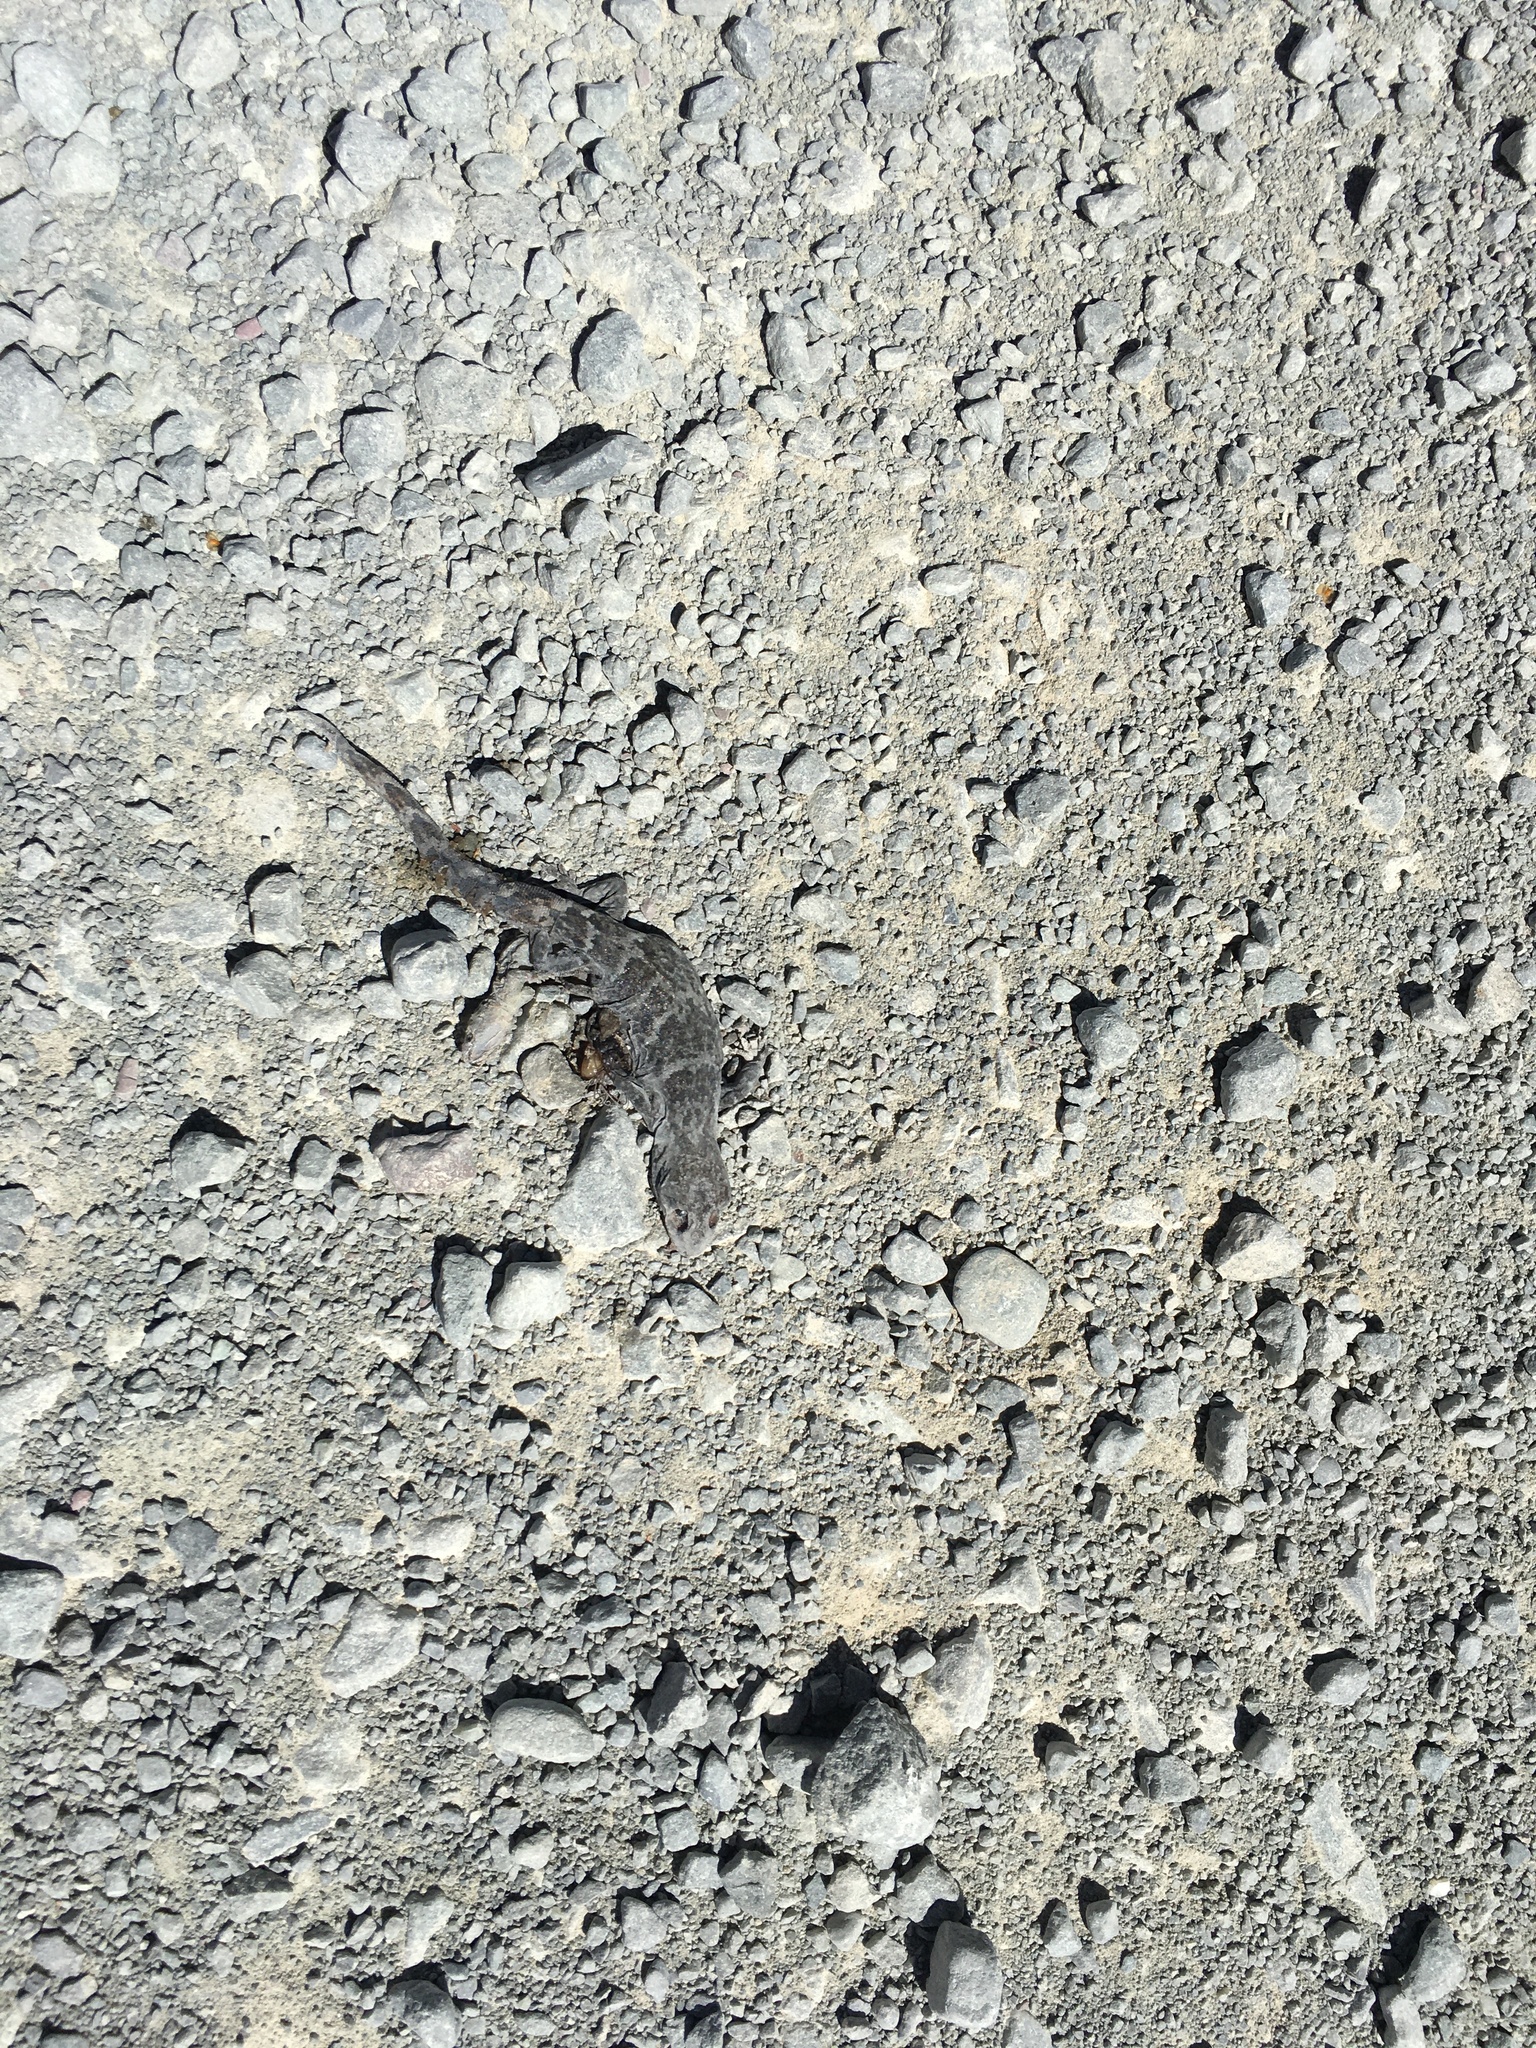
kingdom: Animalia
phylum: Chordata
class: Squamata
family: Diplodactylidae
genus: Woodworthia
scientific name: Woodworthia
